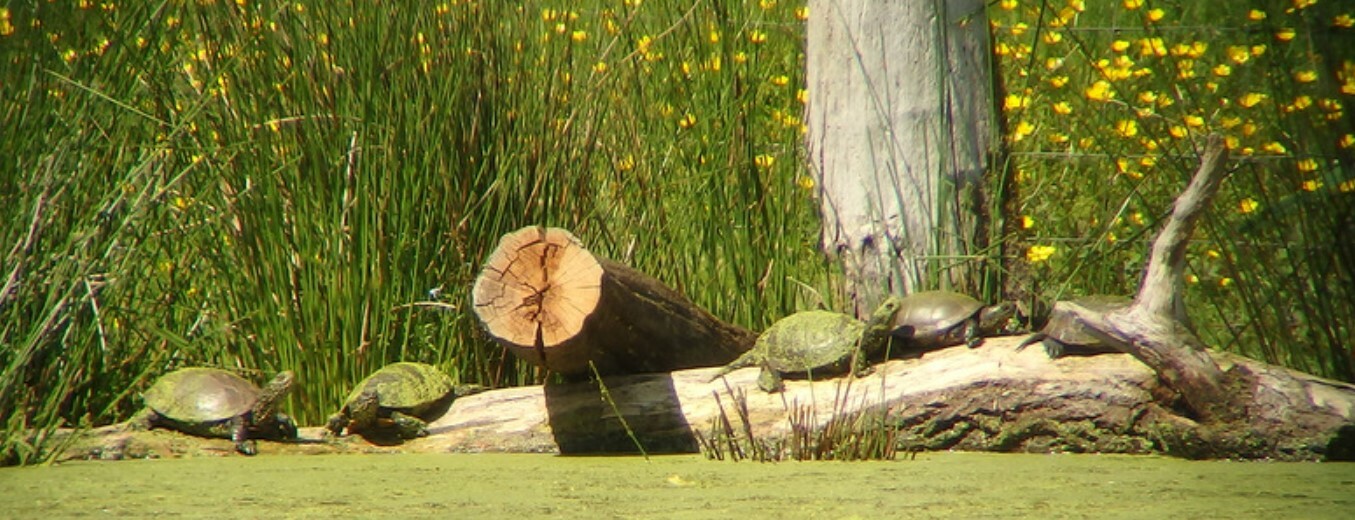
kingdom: Animalia
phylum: Chordata
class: Testudines
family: Emydidae
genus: Emys
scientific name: Emys orbicularis
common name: European pond turtle
